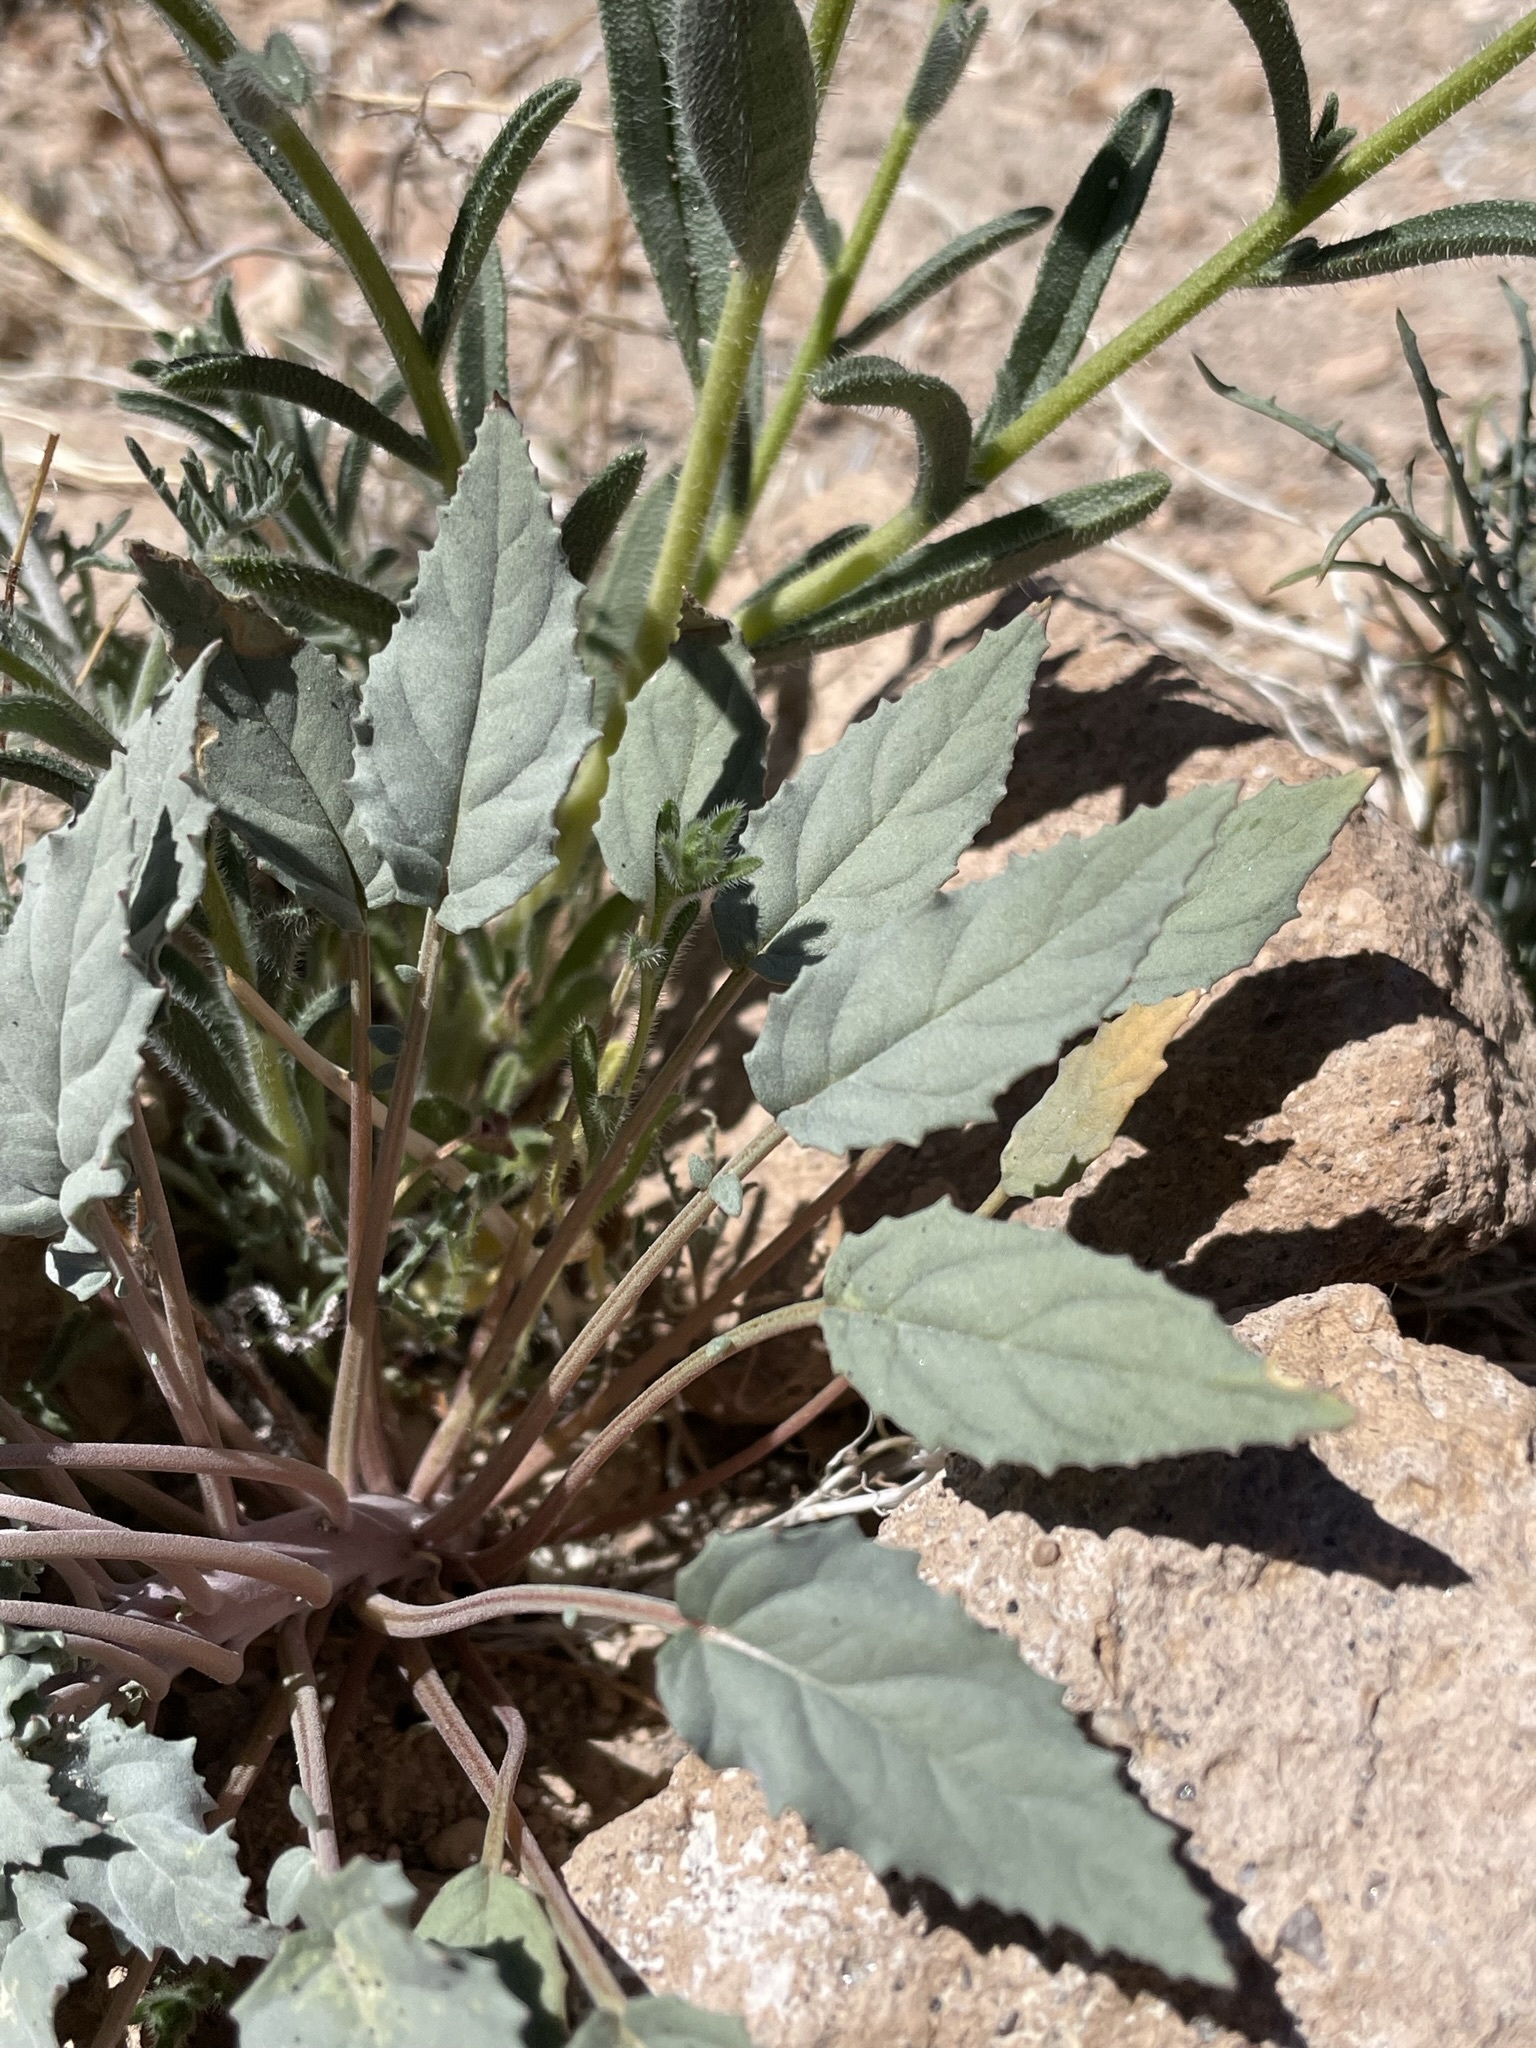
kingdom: Plantae
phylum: Tracheophyta
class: Magnoliopsida
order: Myrtales
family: Onagraceae
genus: Chylismia
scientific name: Chylismia claviformis
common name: Browneyes
